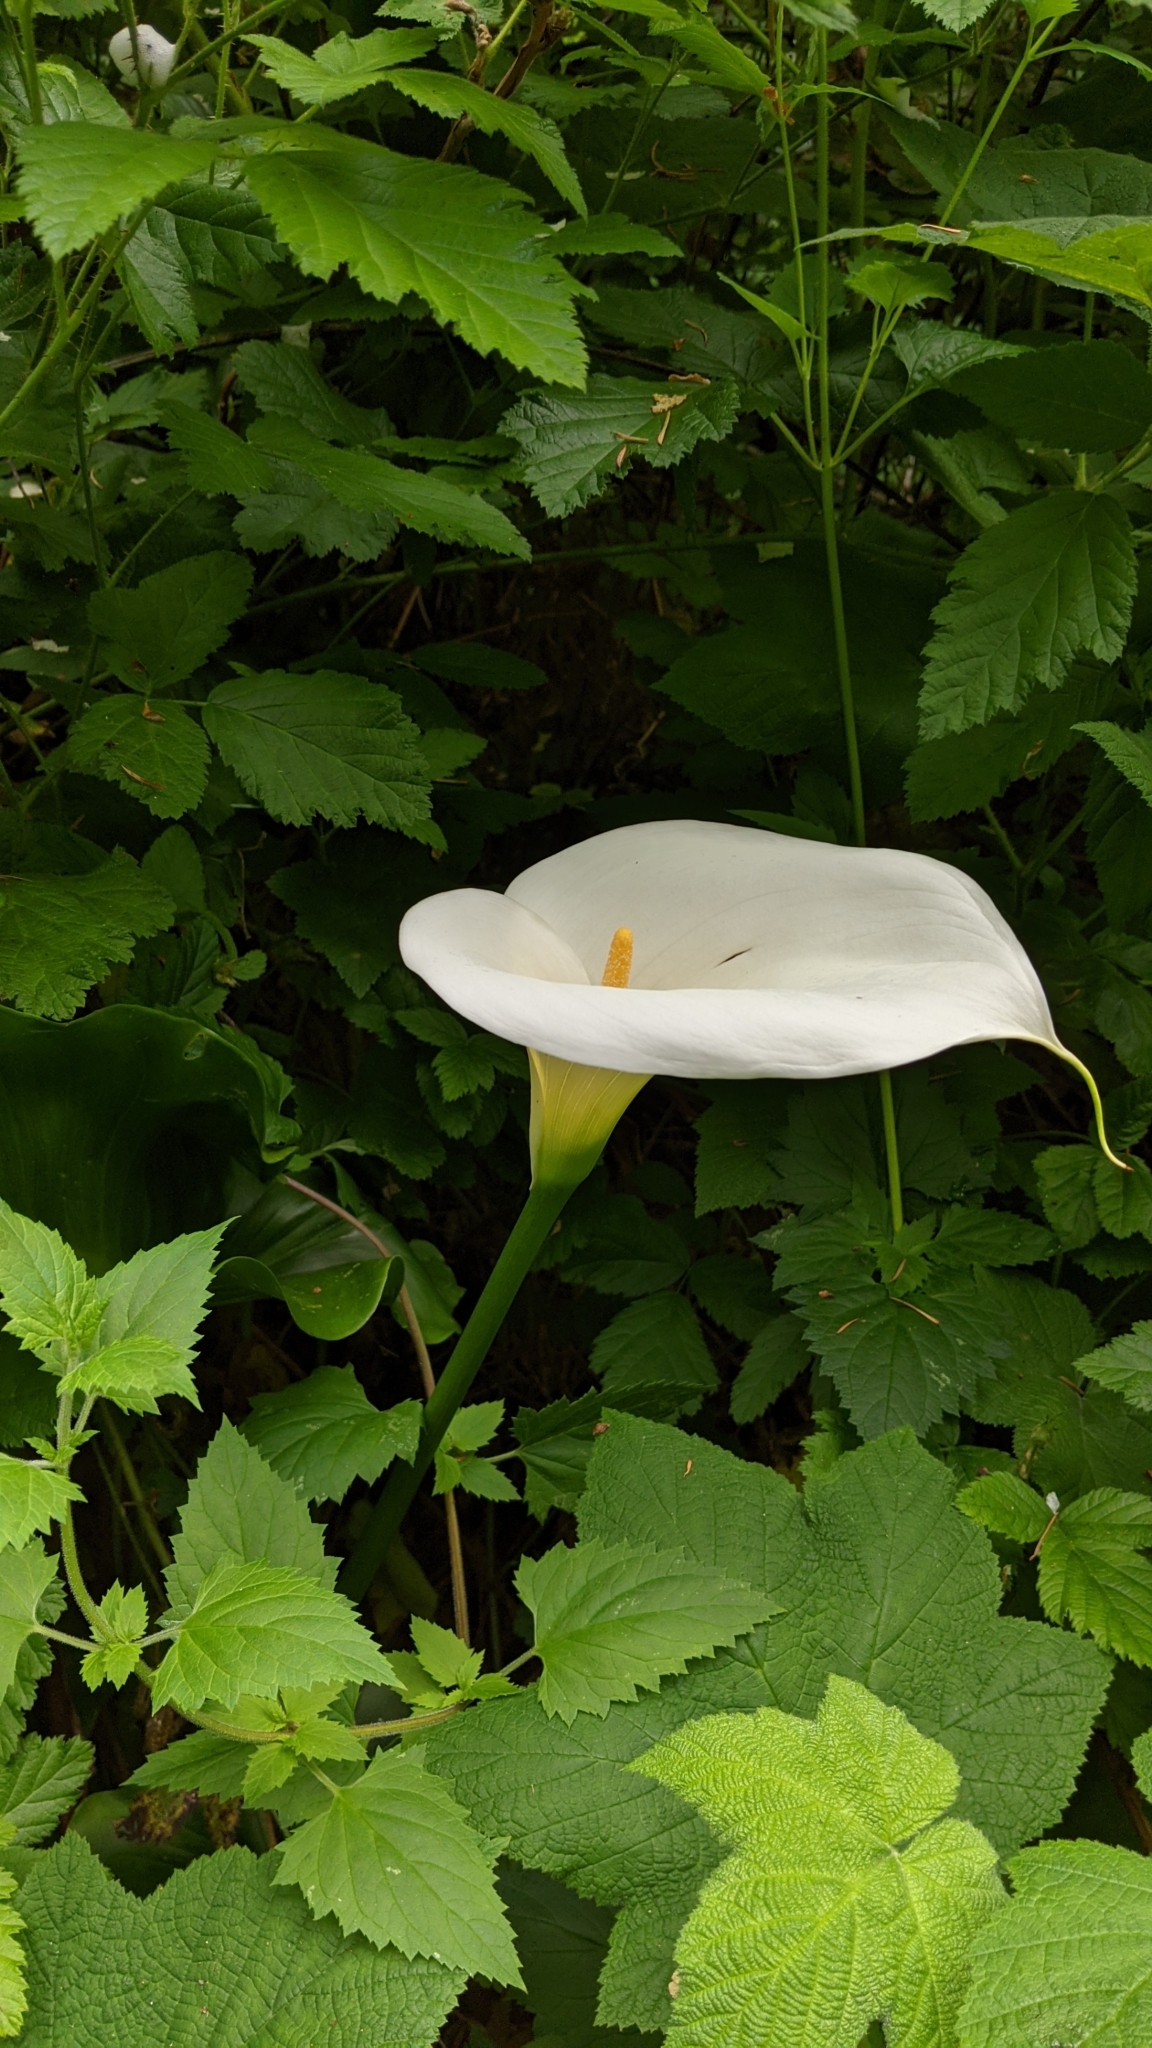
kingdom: Plantae
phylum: Tracheophyta
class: Liliopsida
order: Alismatales
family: Araceae
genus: Zantedeschia
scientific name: Zantedeschia aethiopica
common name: Altar-lily
